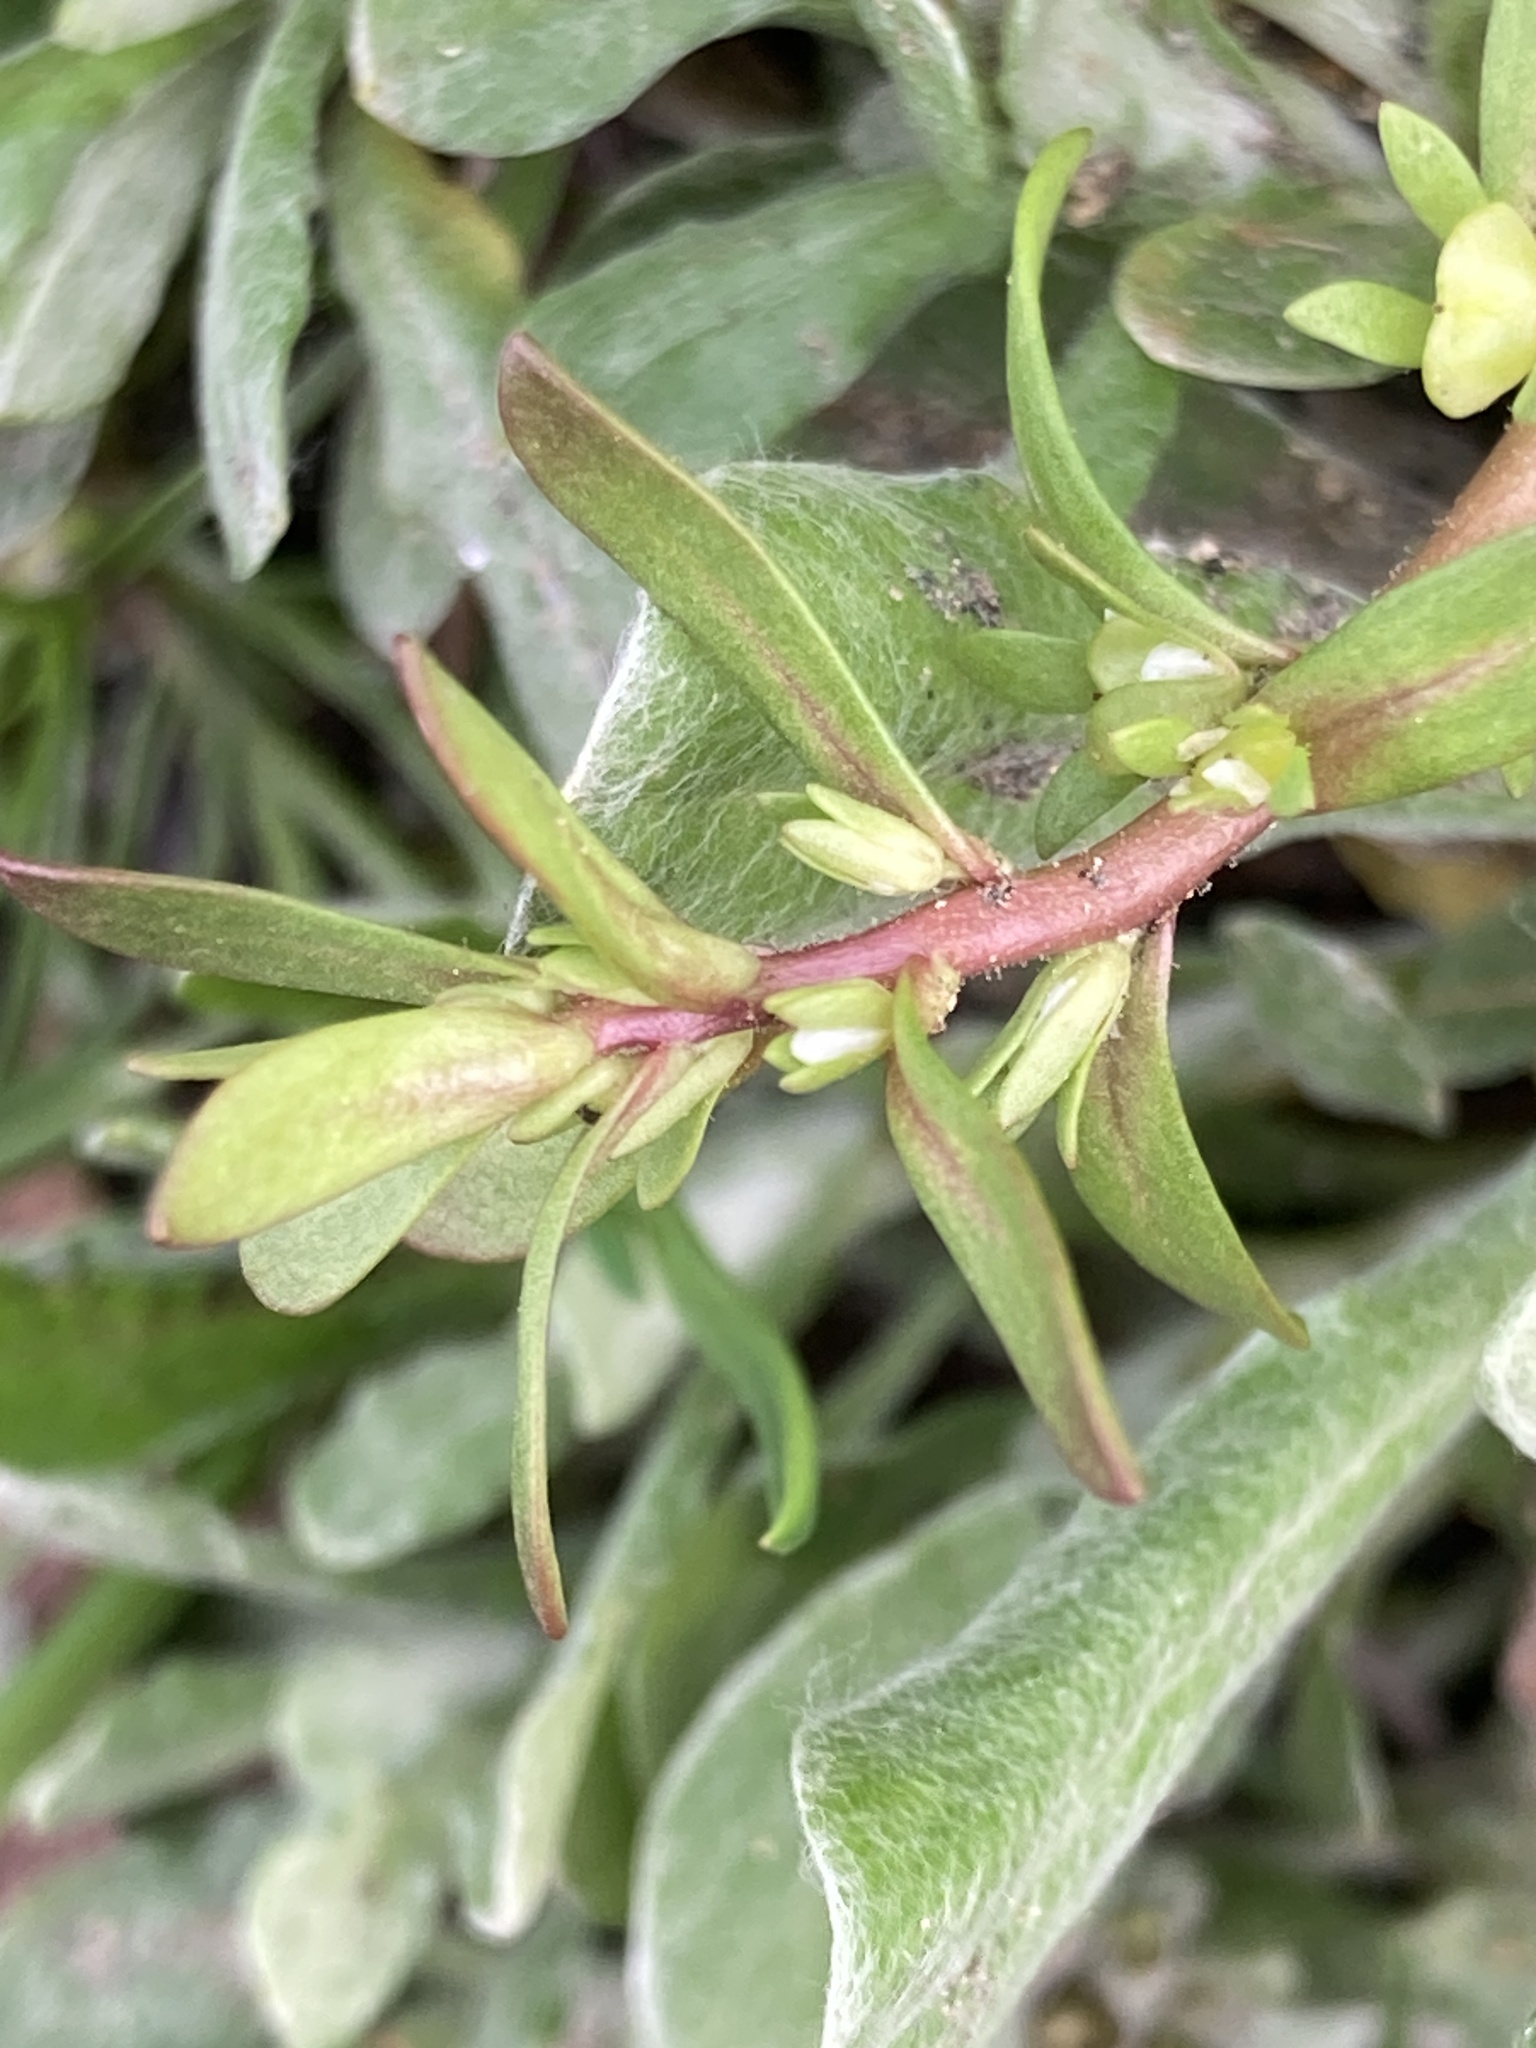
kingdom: Plantae
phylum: Tracheophyta
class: Magnoliopsida
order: Lamiales
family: Plantaginaceae
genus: Veronica
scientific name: Veronica peregrina
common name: Neckweed
